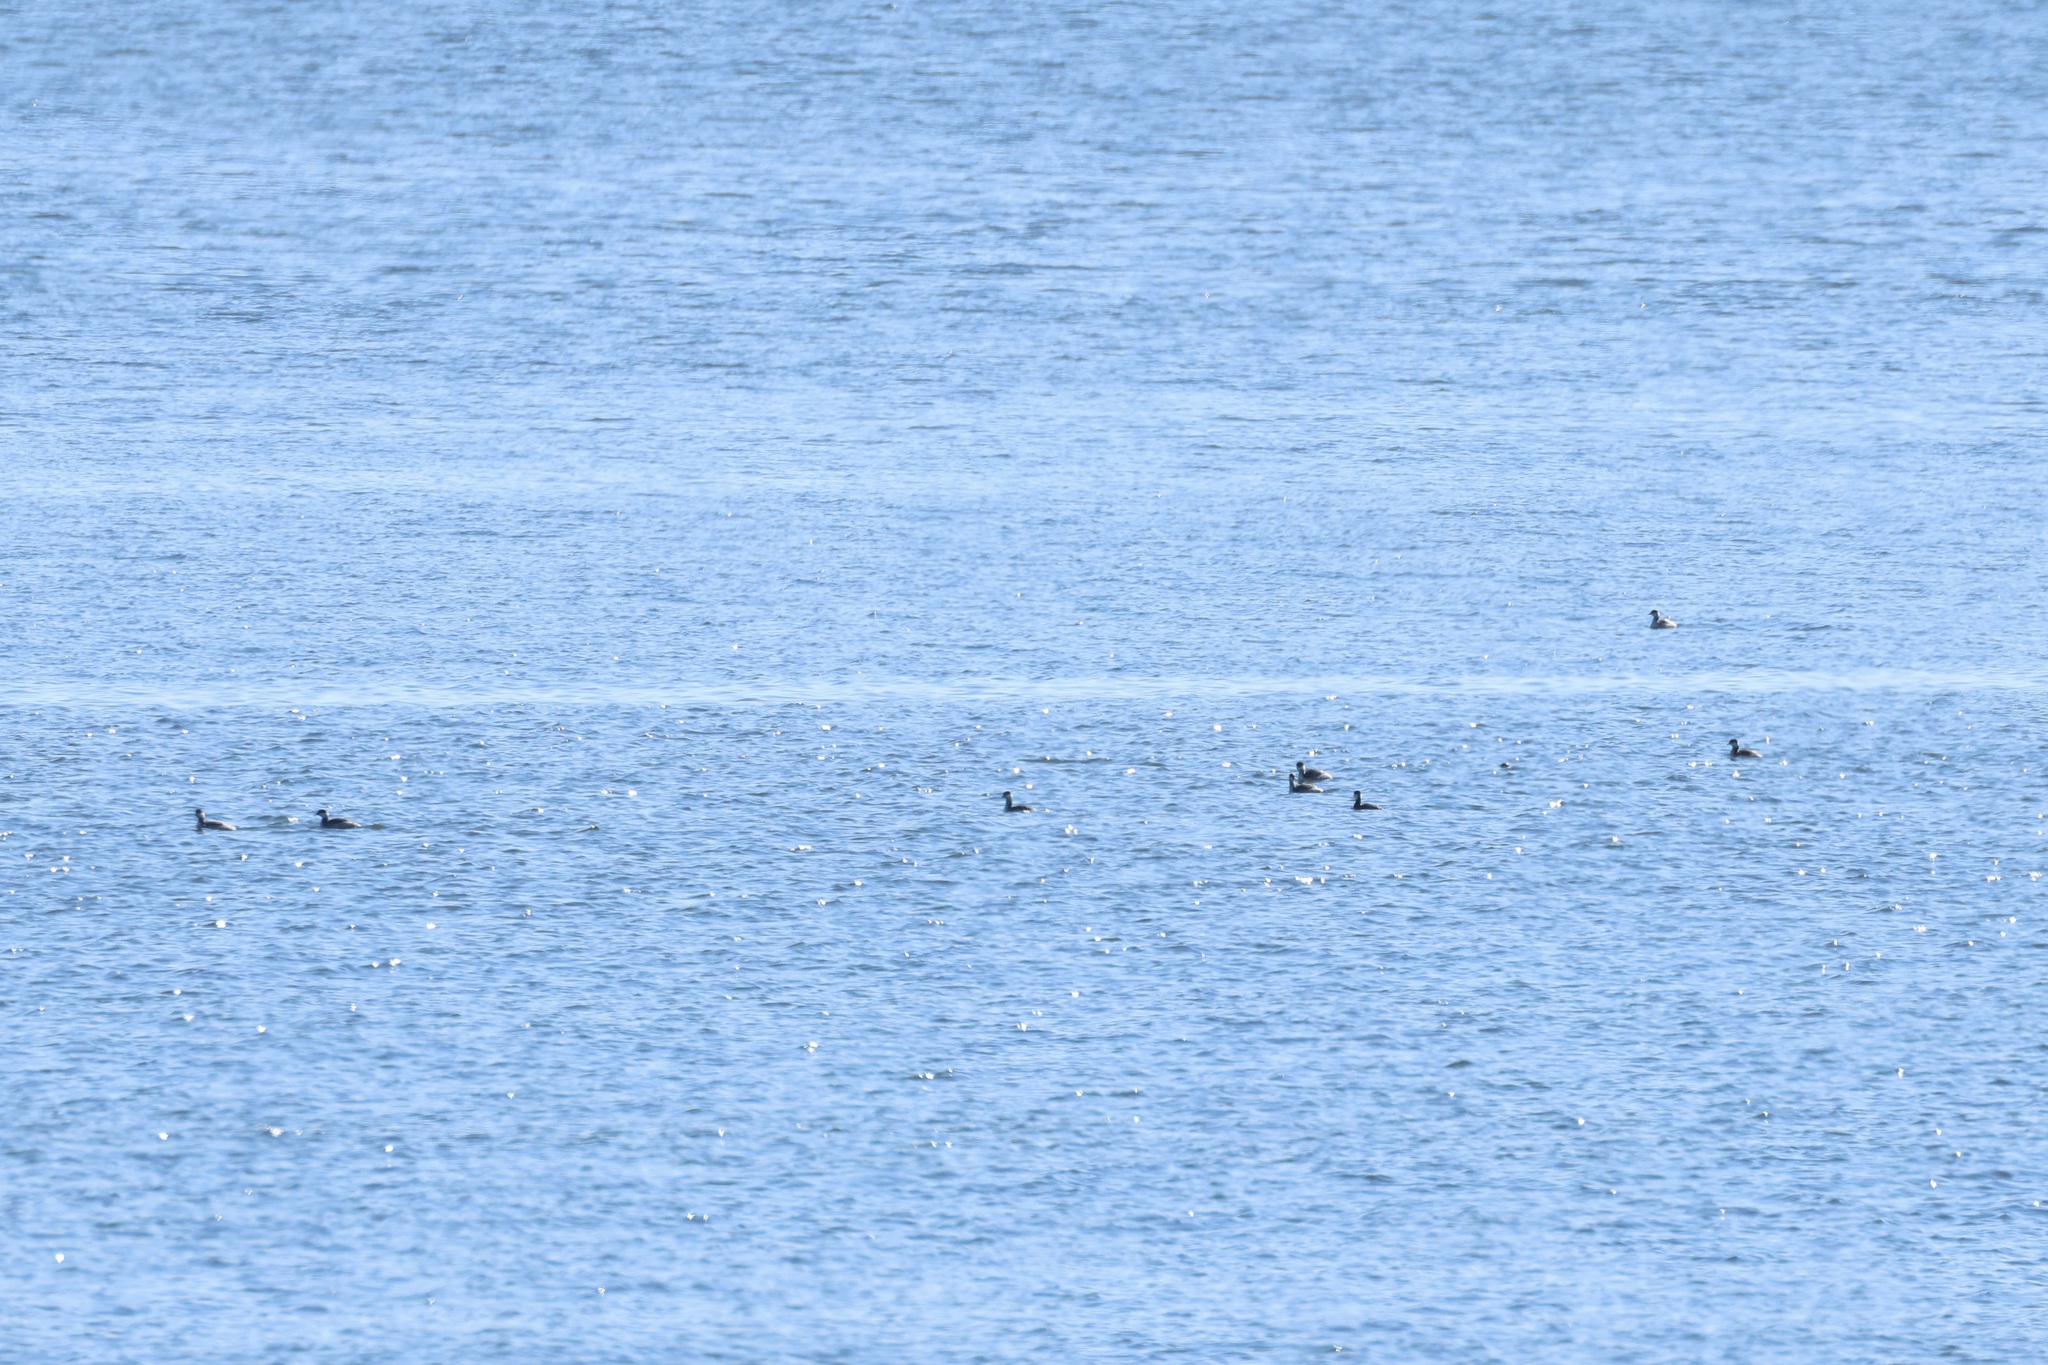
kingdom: Animalia
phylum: Chordata
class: Aves
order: Podicipediformes
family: Podicipedidae
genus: Podiceps
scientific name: Podiceps auritus
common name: Horned grebe
